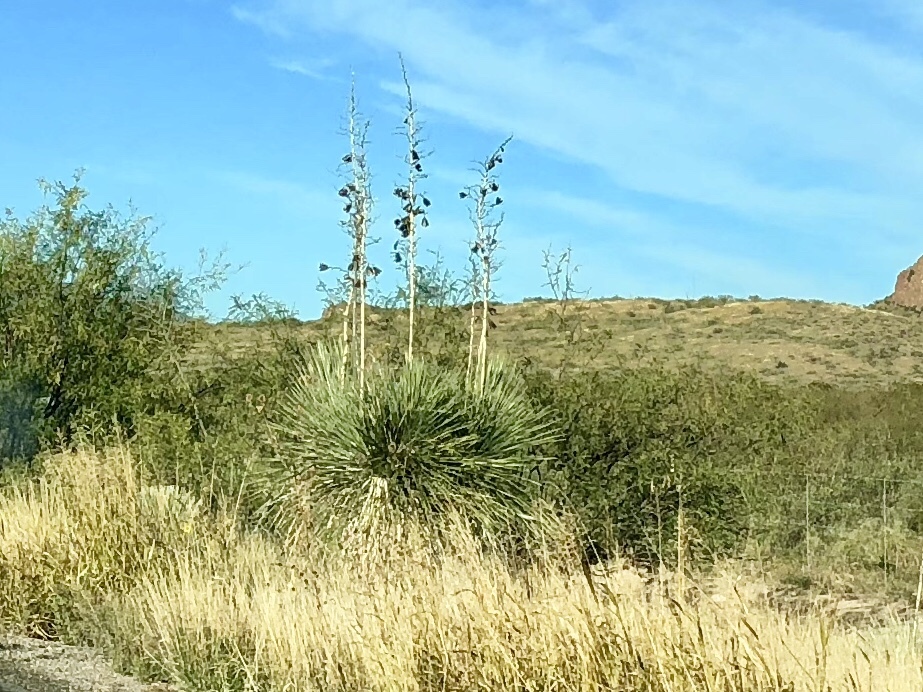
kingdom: Plantae
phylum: Tracheophyta
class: Liliopsida
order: Asparagales
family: Asparagaceae
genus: Yucca
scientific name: Yucca elata
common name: Palmella
